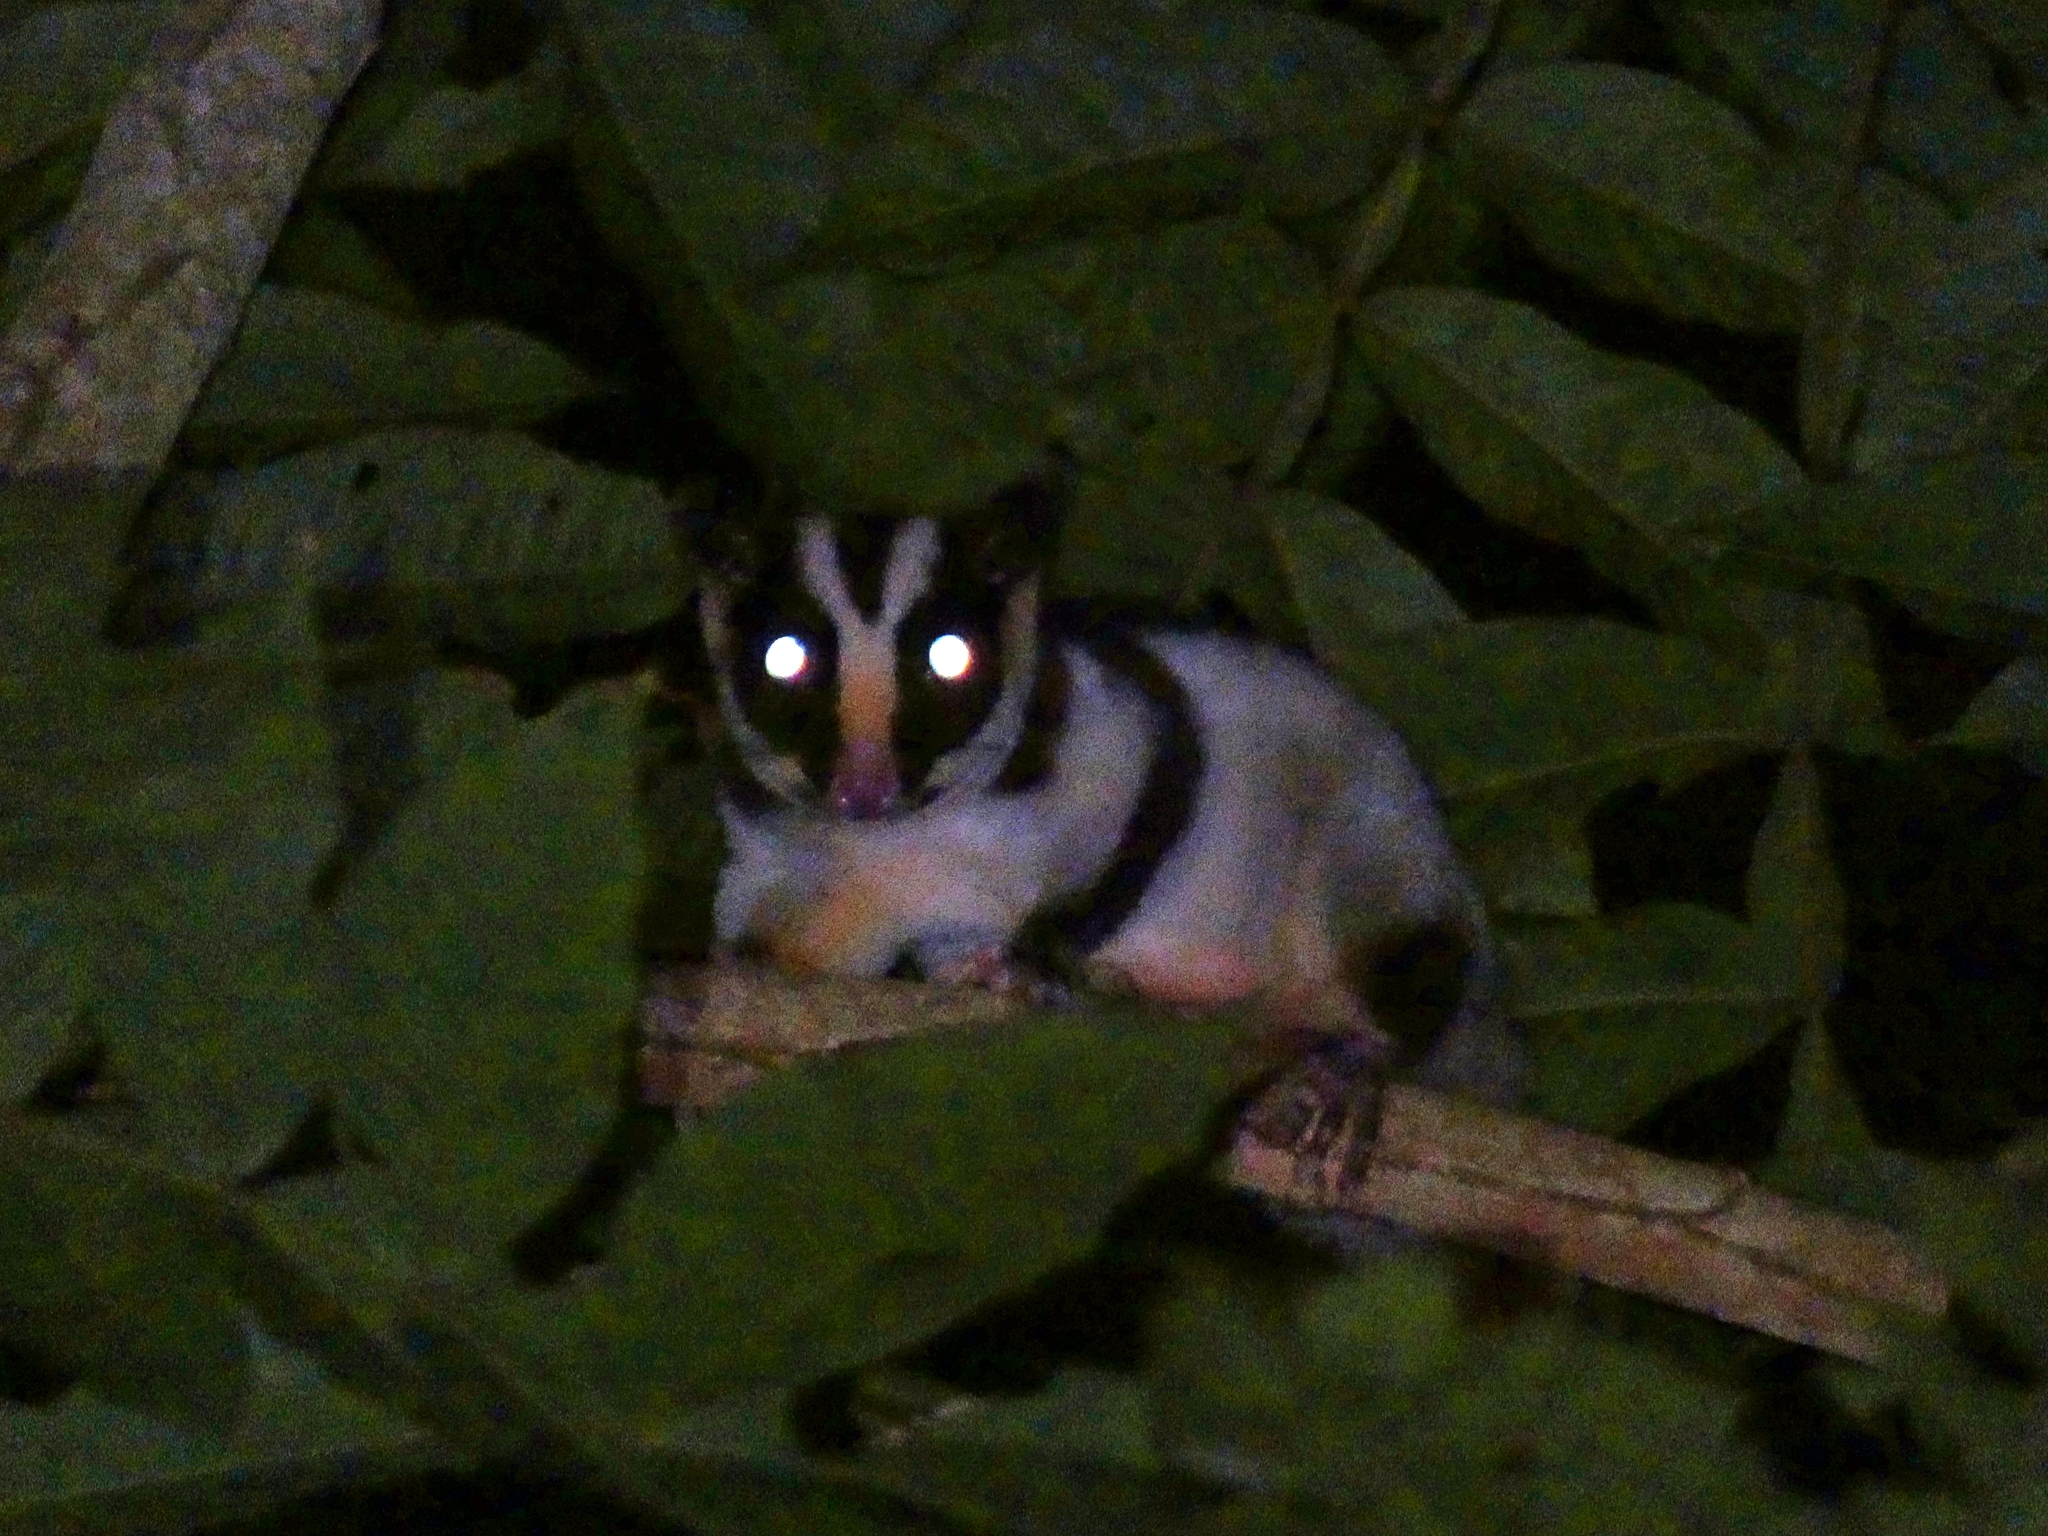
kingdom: Animalia
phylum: Chordata
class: Mammalia
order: Diprotodontia
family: Petauridae
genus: Dactylopsila
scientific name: Dactylopsila trivirgata
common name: Striped possum
